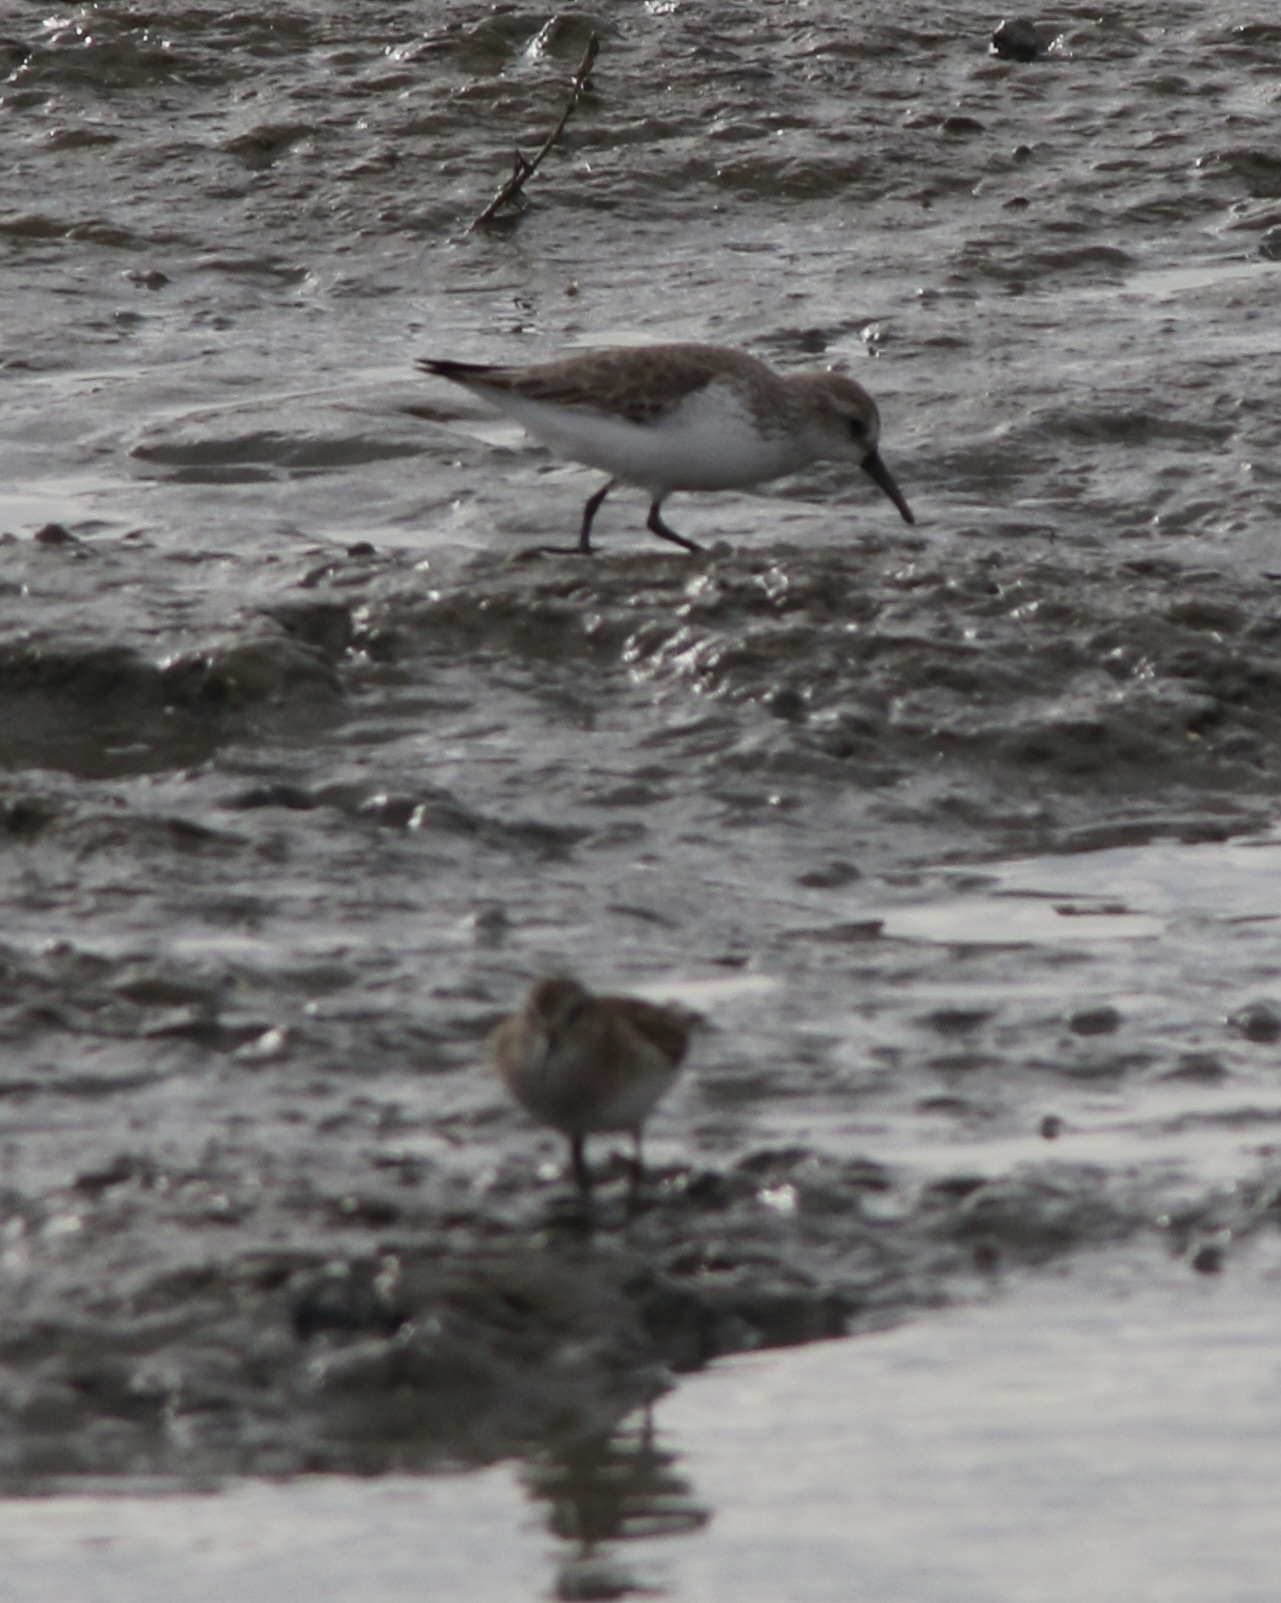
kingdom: Animalia
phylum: Chordata
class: Aves
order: Charadriiformes
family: Scolopacidae
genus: Calidris
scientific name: Calidris mauri
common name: Western sandpiper
